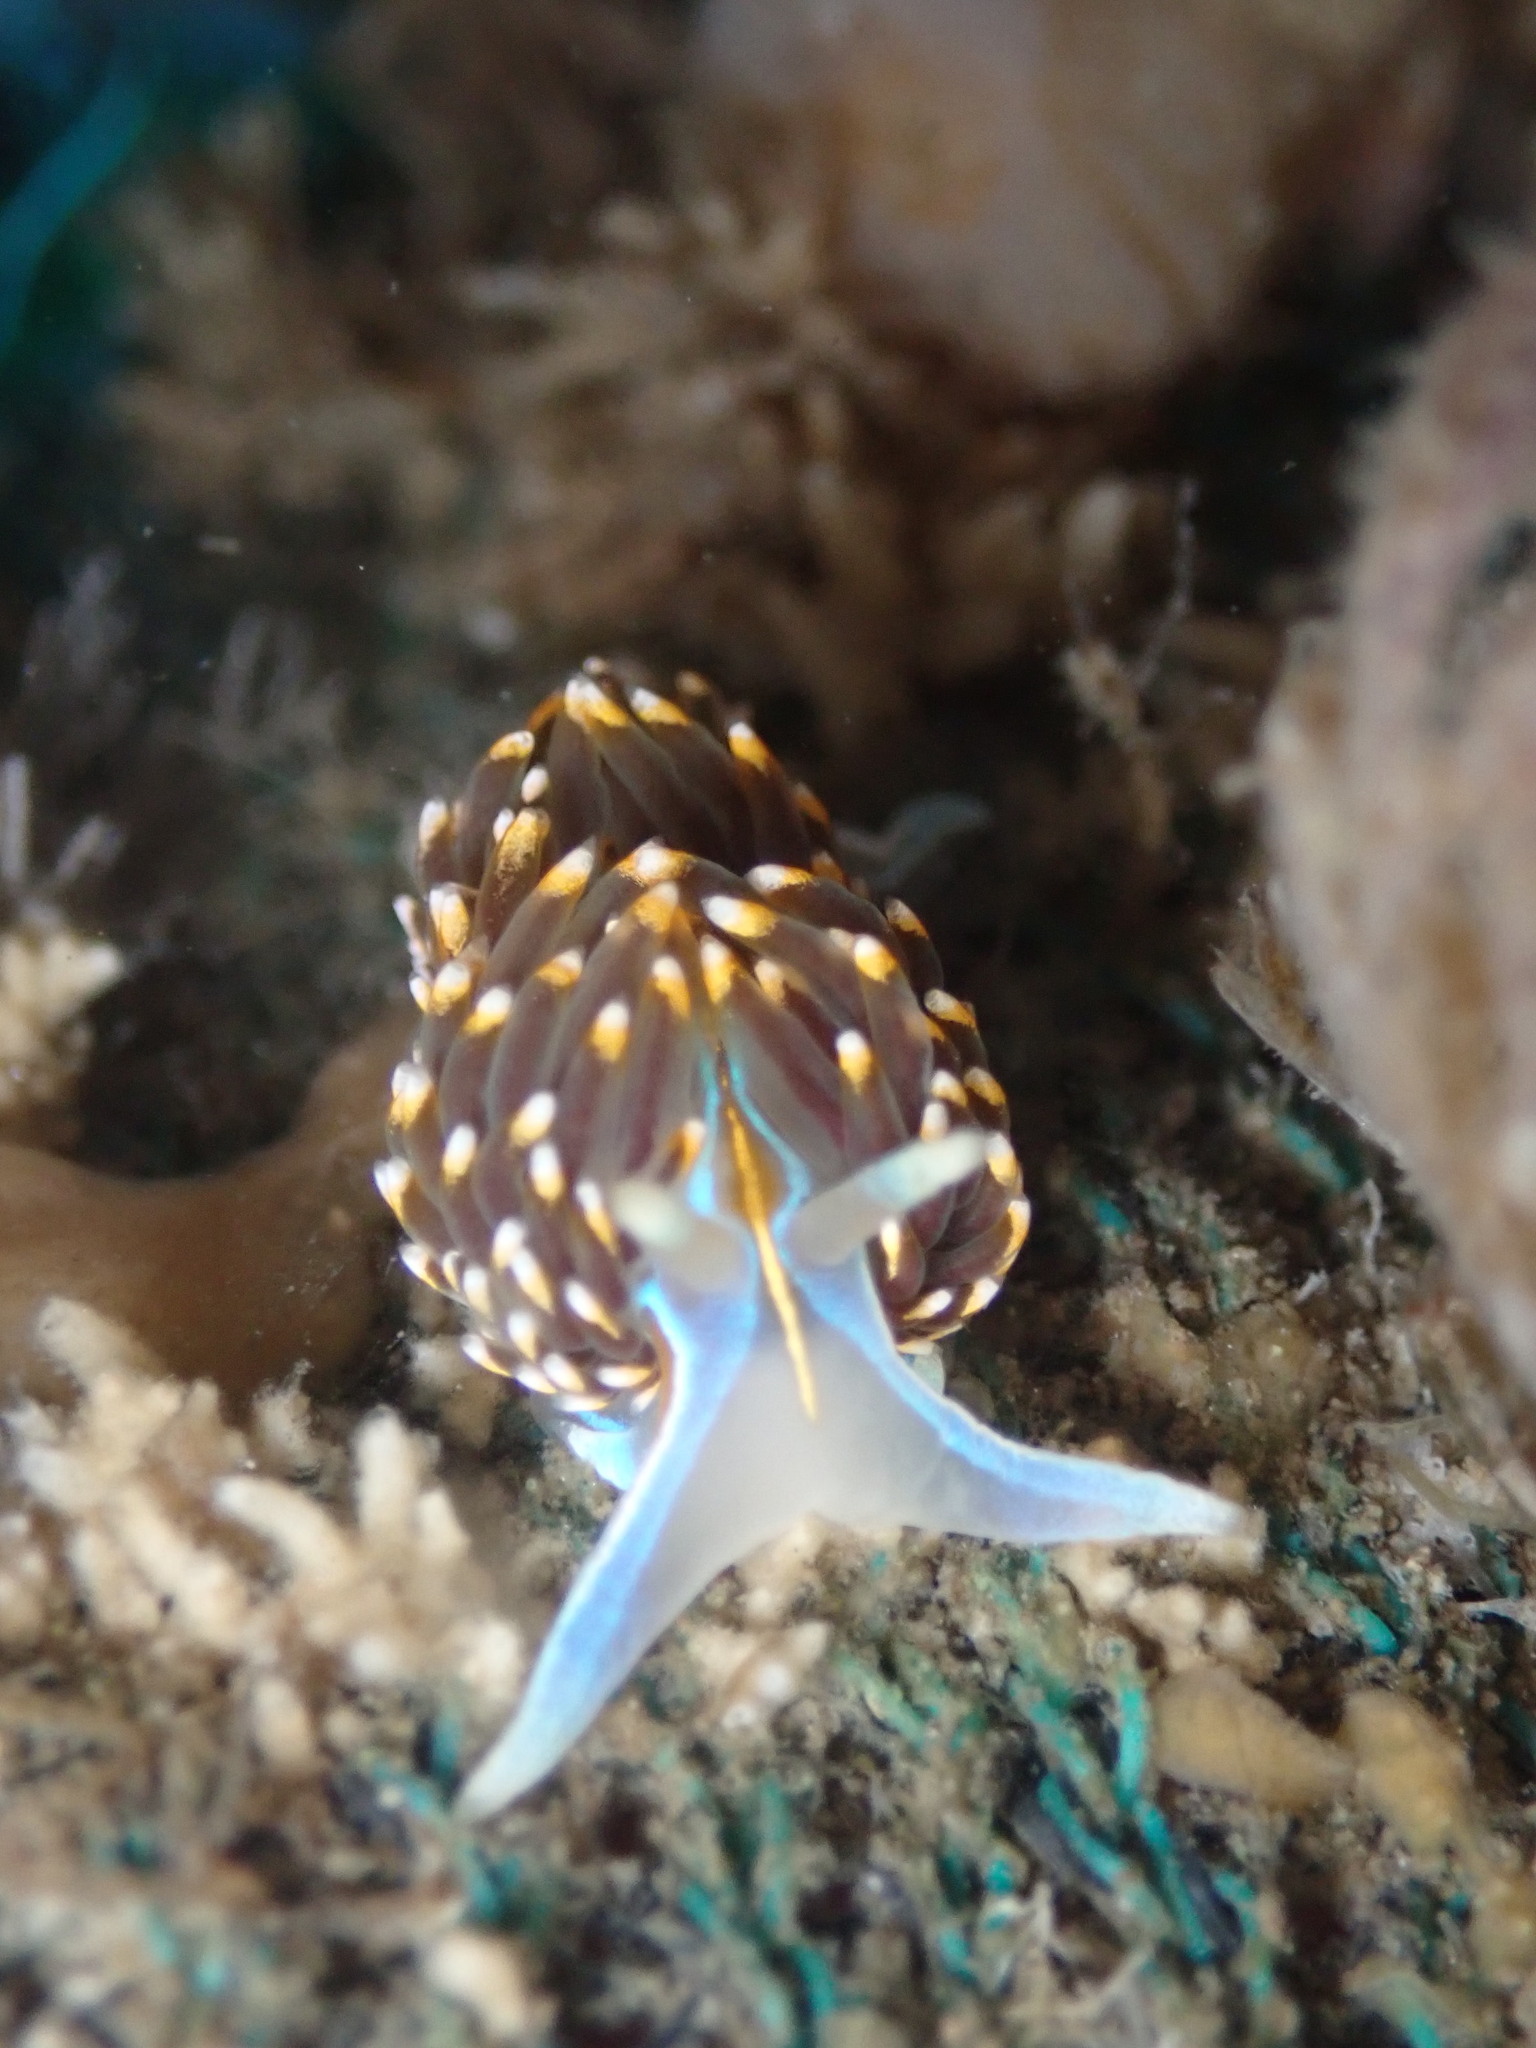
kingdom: Animalia
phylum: Mollusca
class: Gastropoda
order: Nudibranchia
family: Myrrhinidae
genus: Hermissenda
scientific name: Hermissenda opalescens
